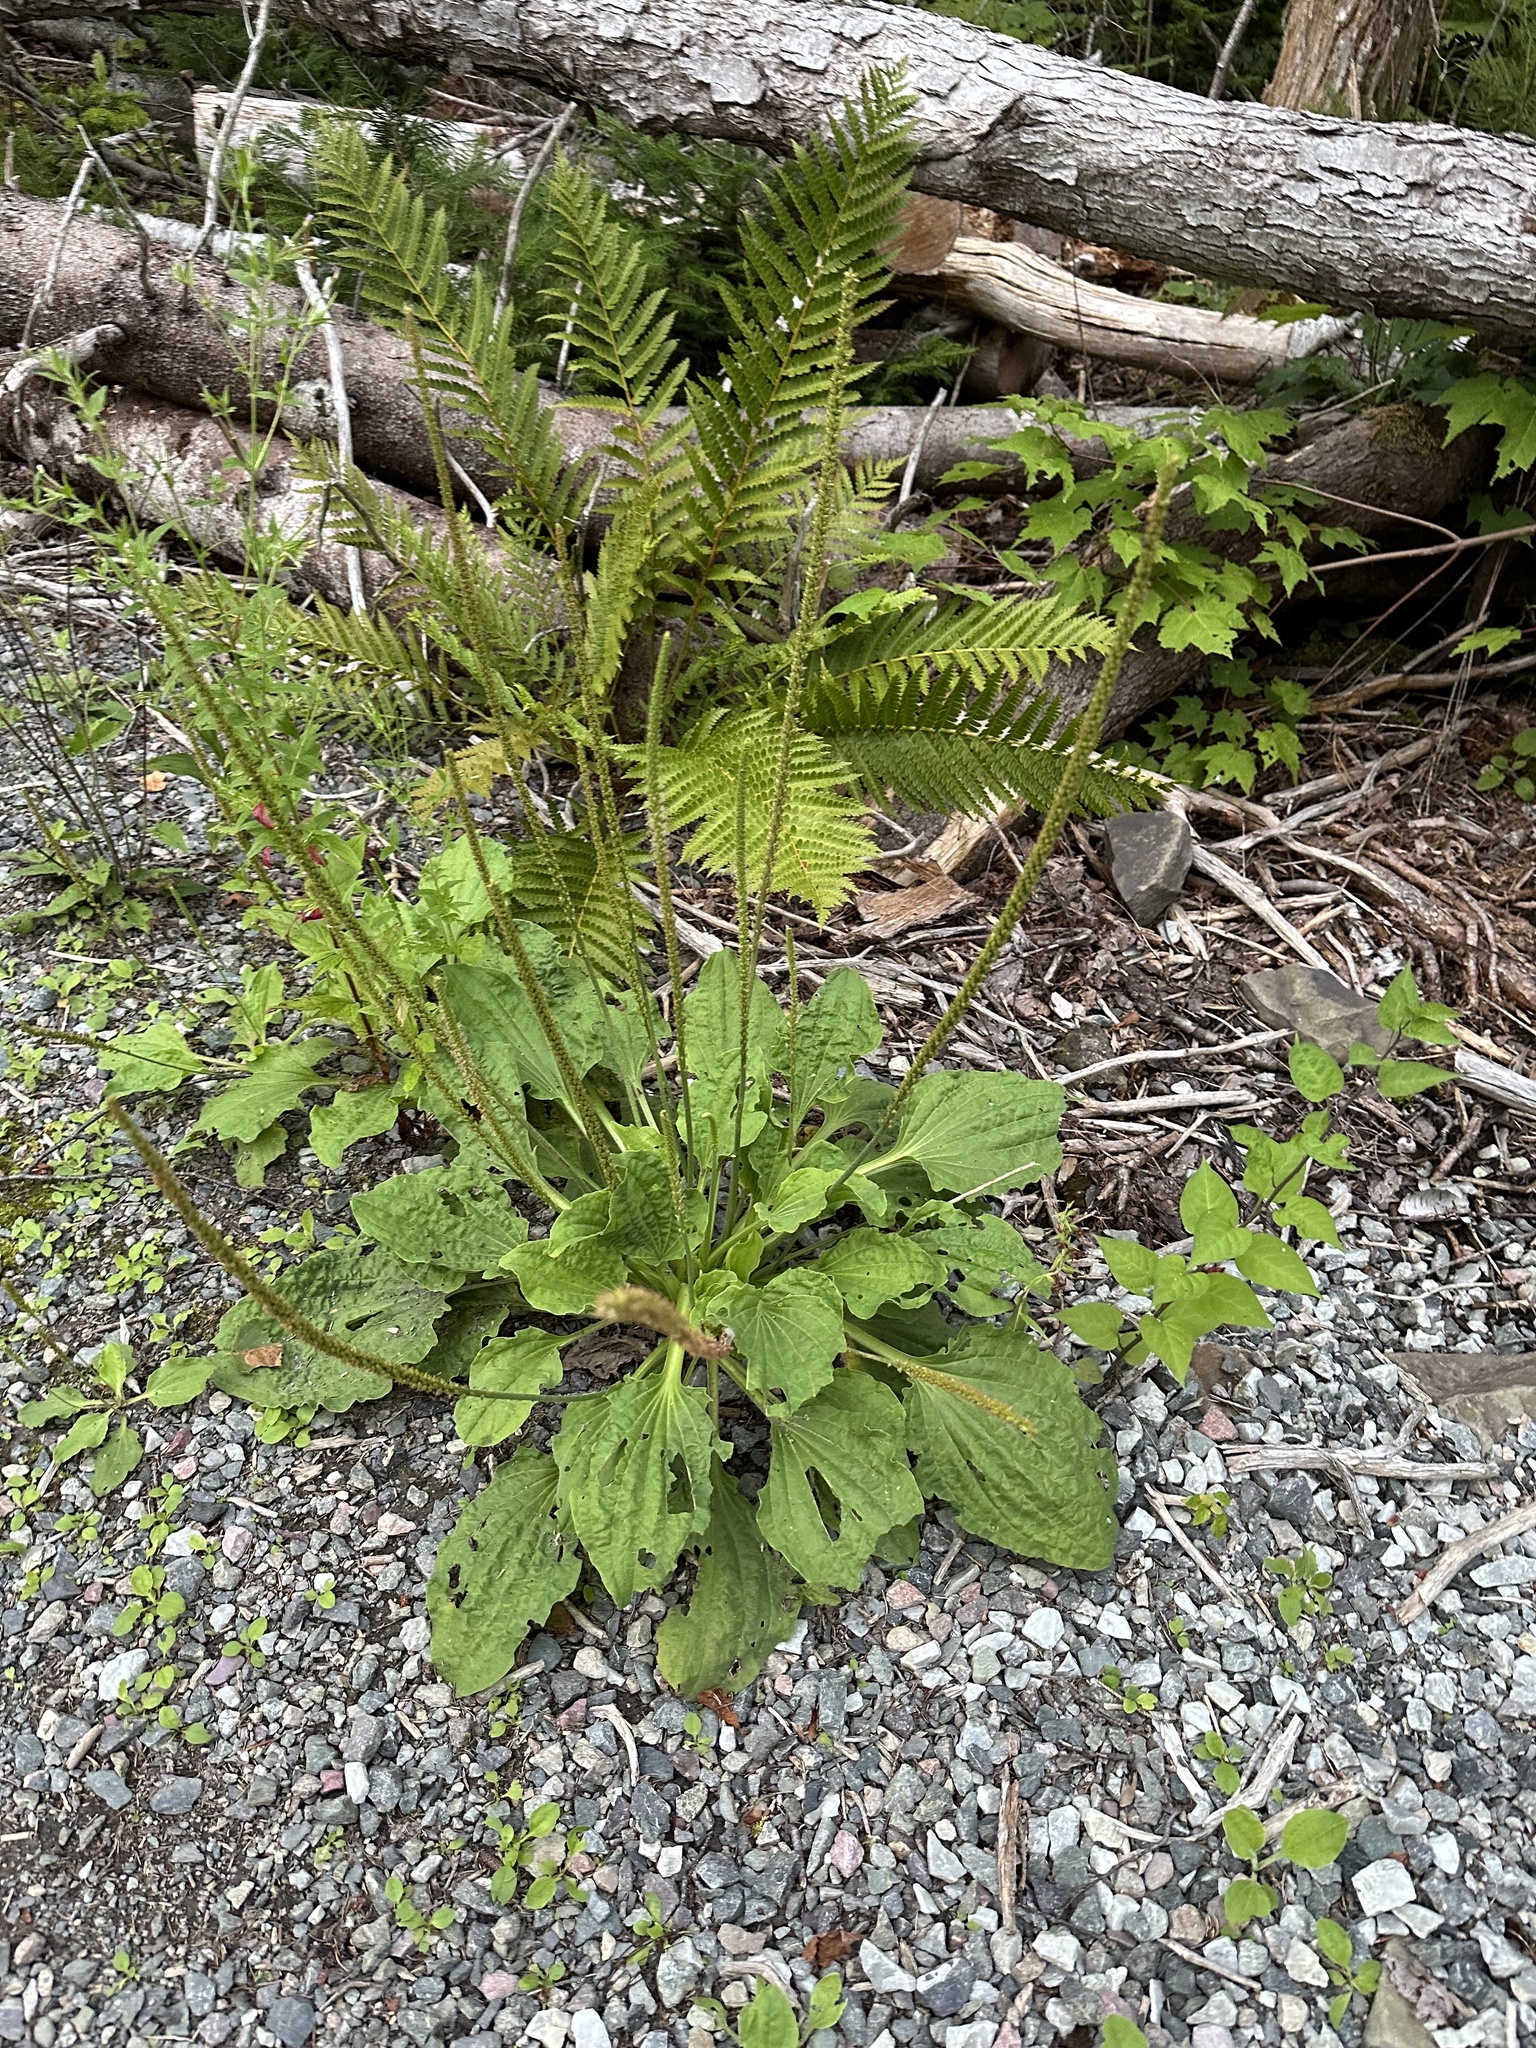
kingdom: Plantae
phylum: Tracheophyta
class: Magnoliopsida
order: Lamiales
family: Plantaginaceae
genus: Plantago
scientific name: Plantago major
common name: Common plantain
